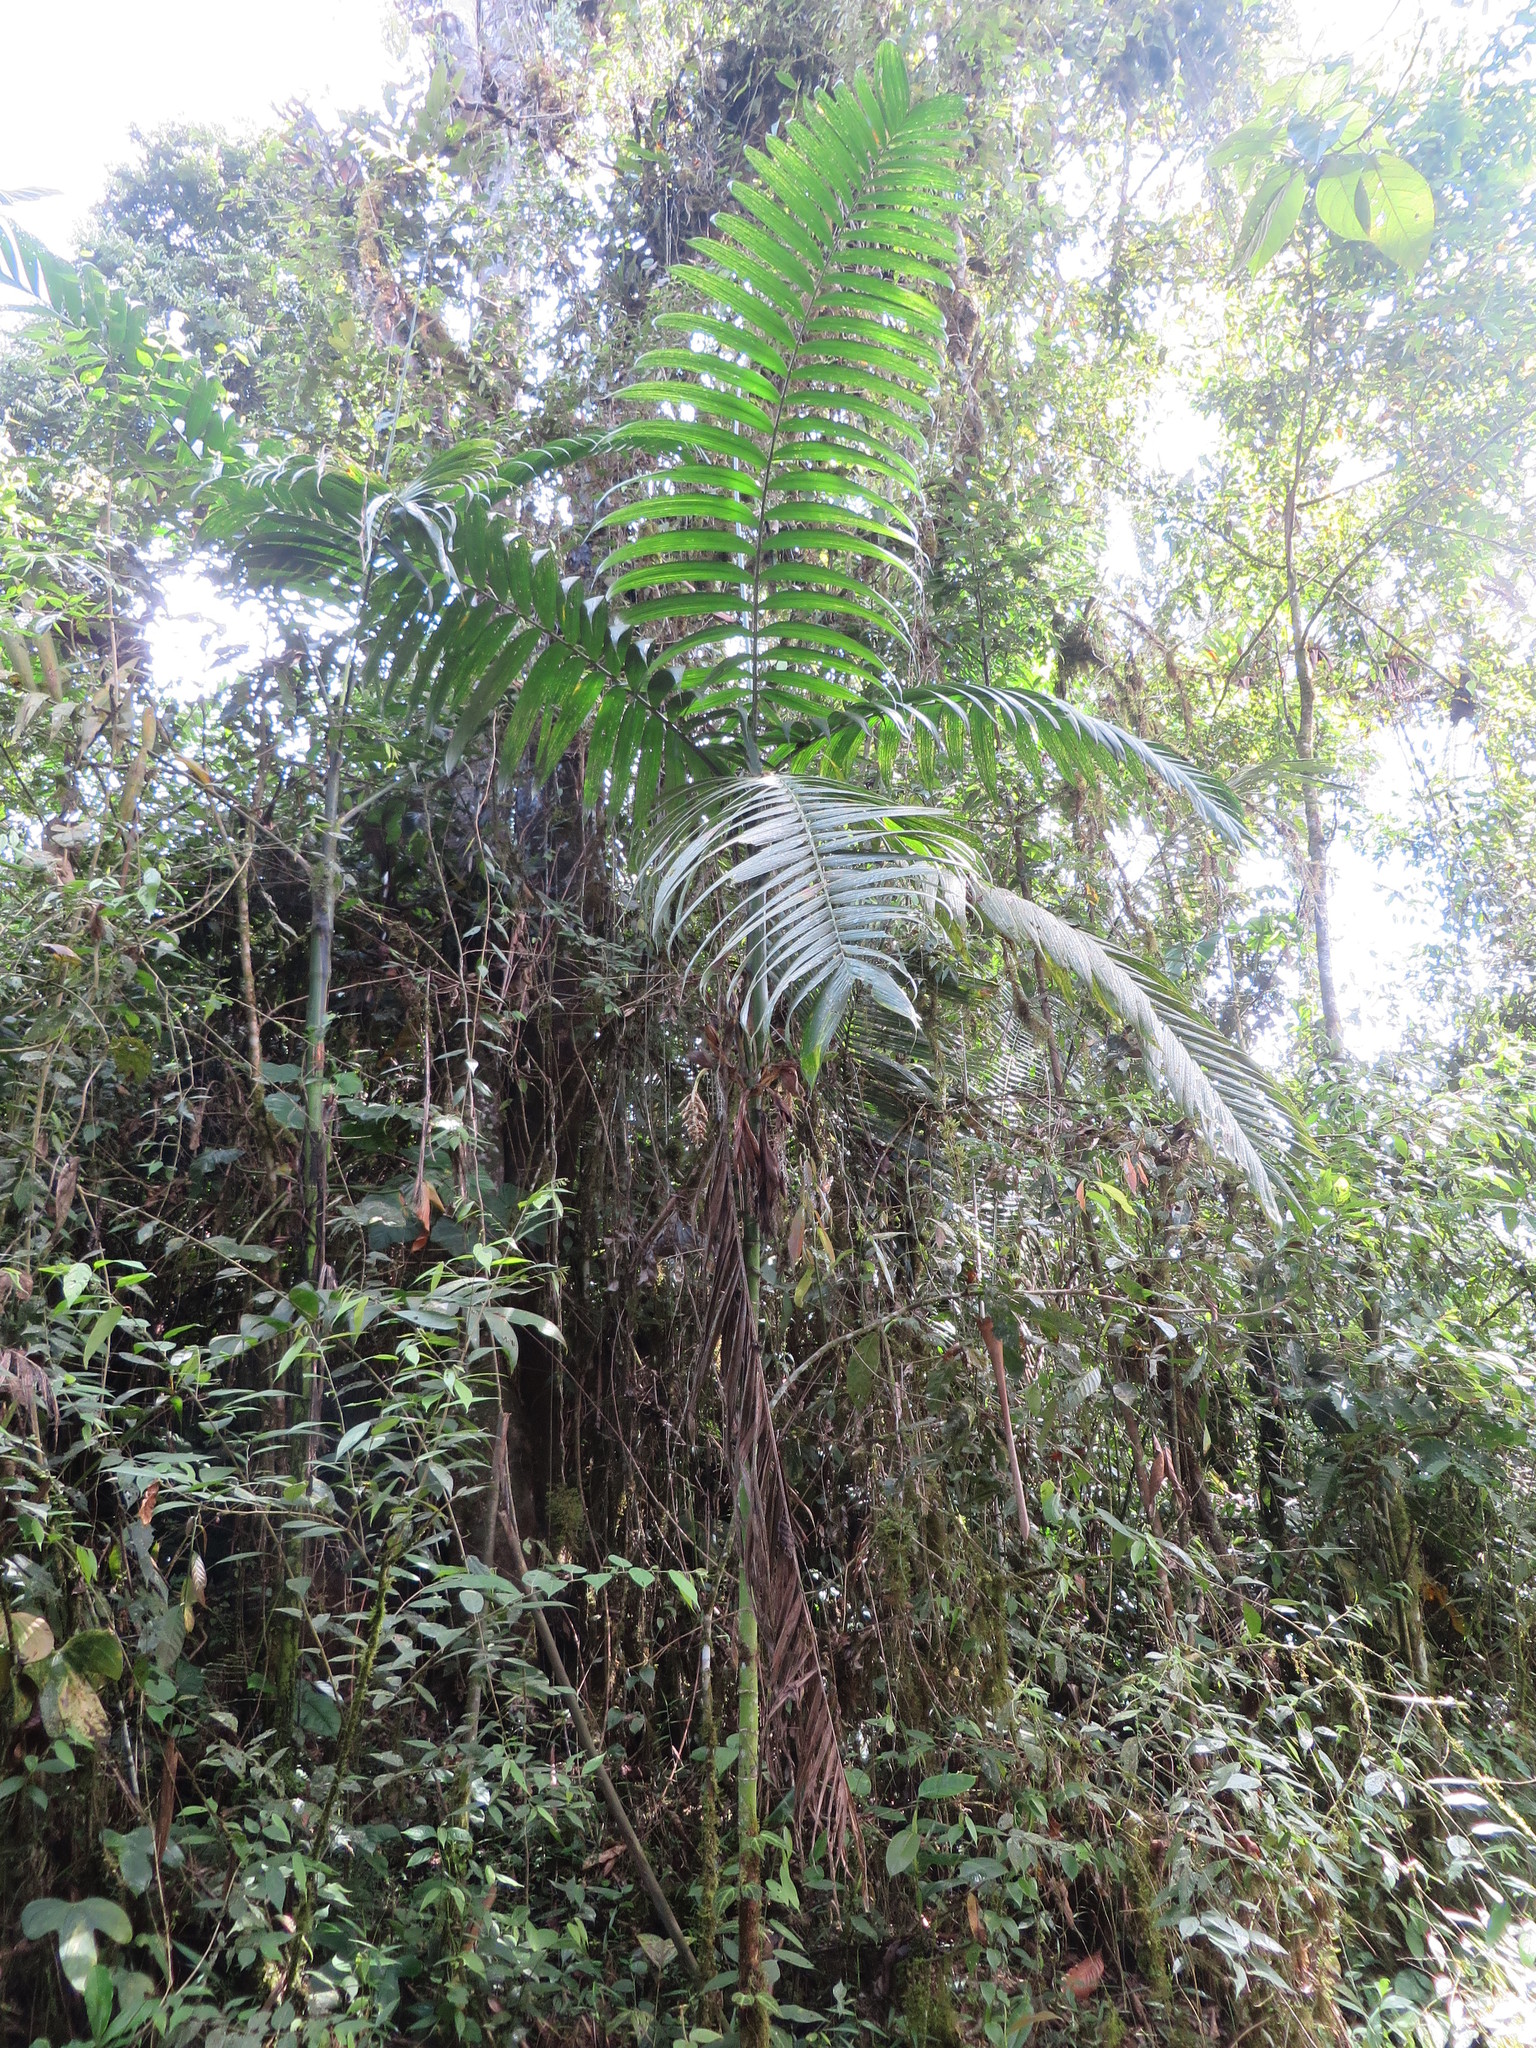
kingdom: Plantae
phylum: Tracheophyta
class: Liliopsida
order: Arecales
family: Arecaceae
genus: Chamaedorea
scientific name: Chamaedorea linearis
